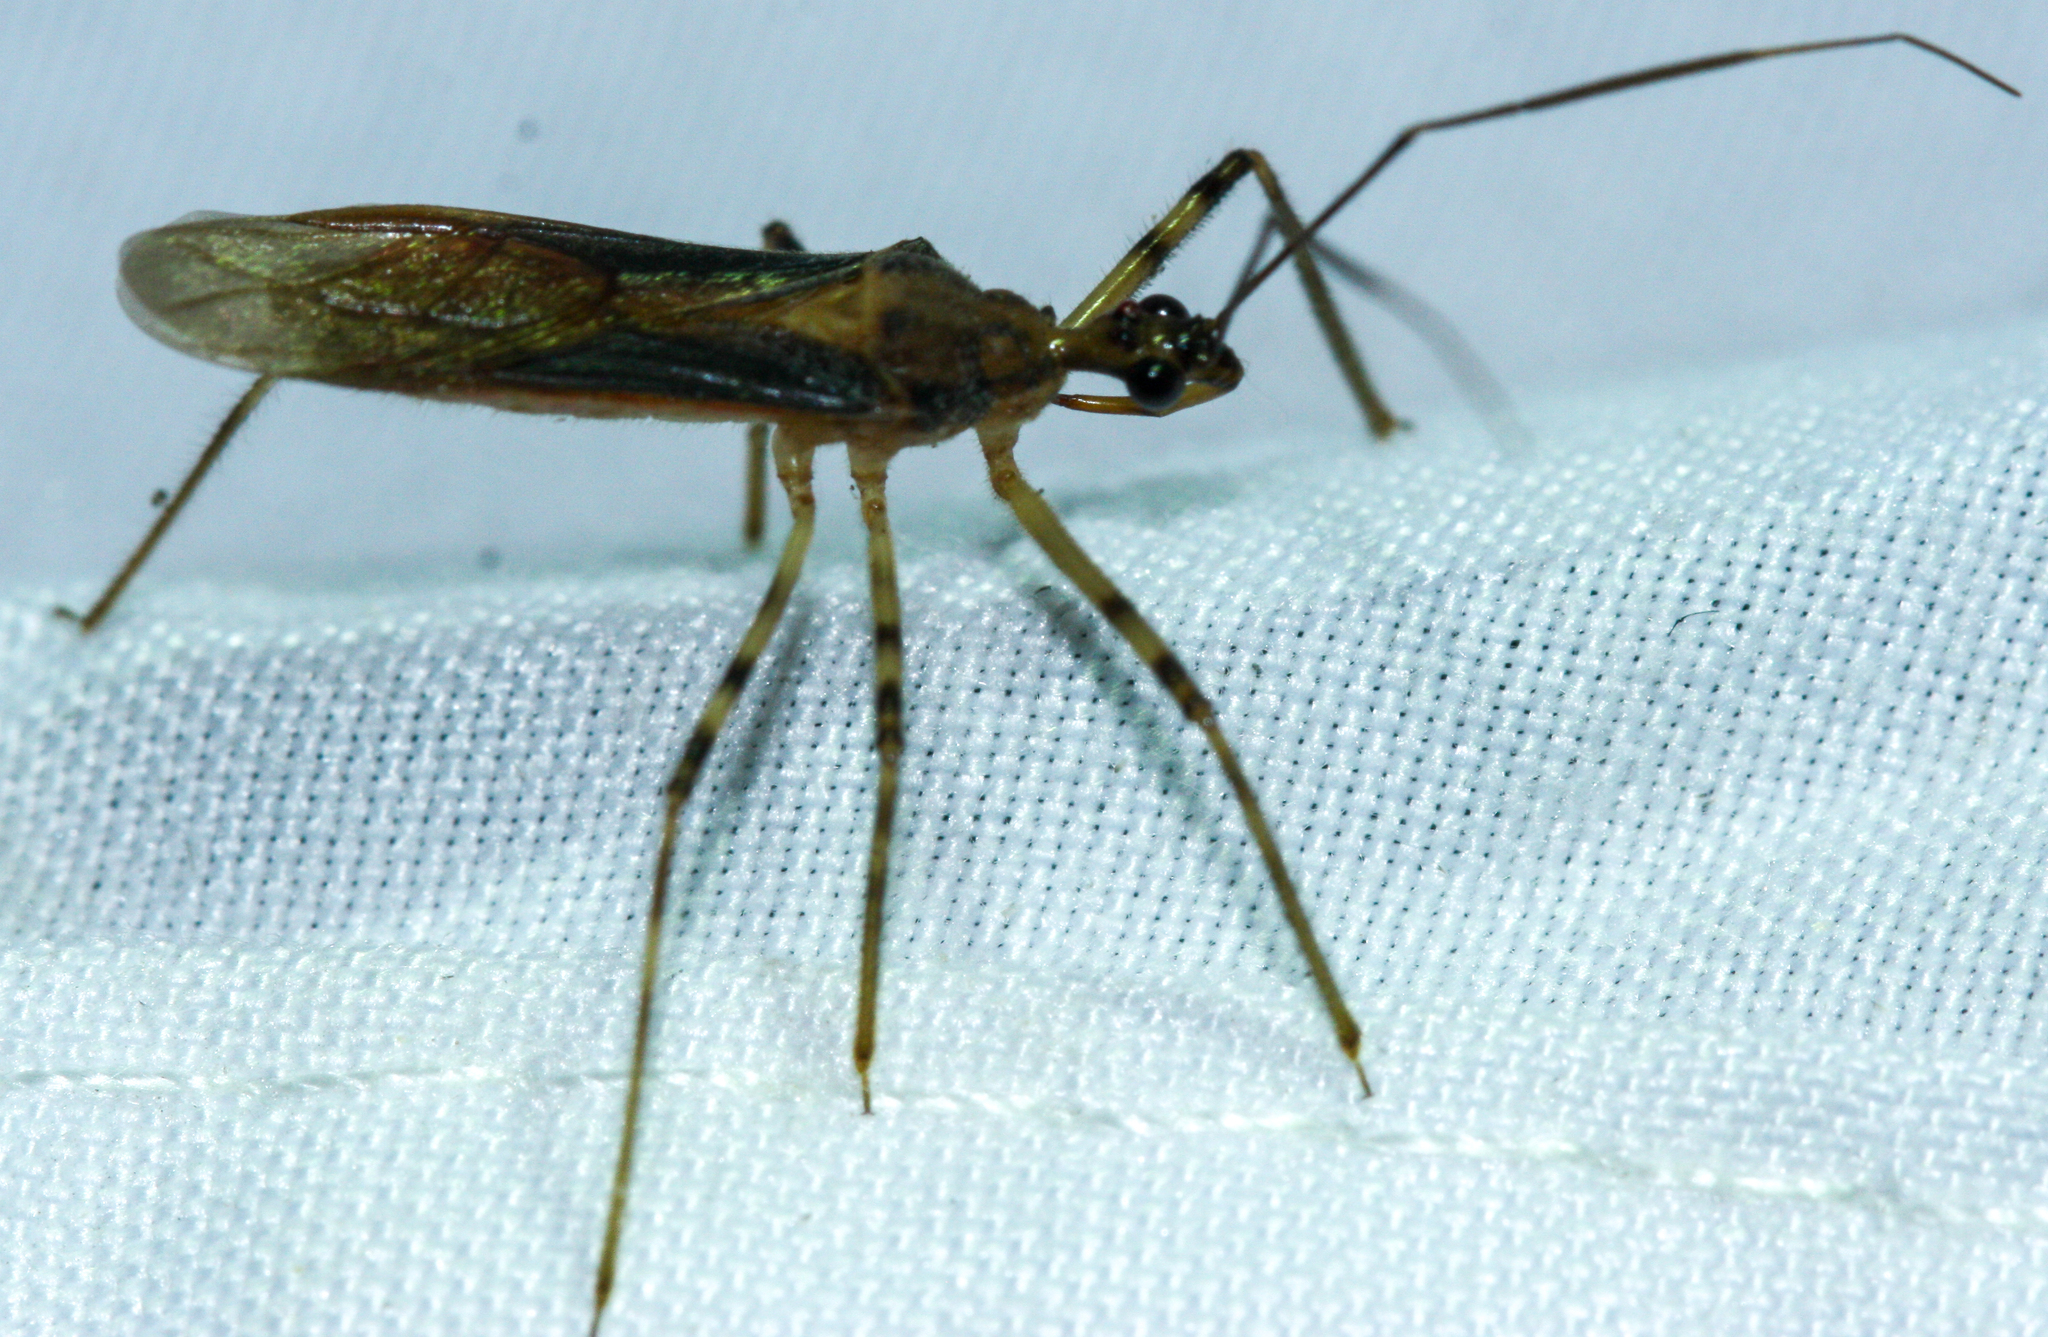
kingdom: Animalia
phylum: Arthropoda
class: Insecta
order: Hemiptera
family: Reduviidae
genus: Castolus
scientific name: Castolus ferox
